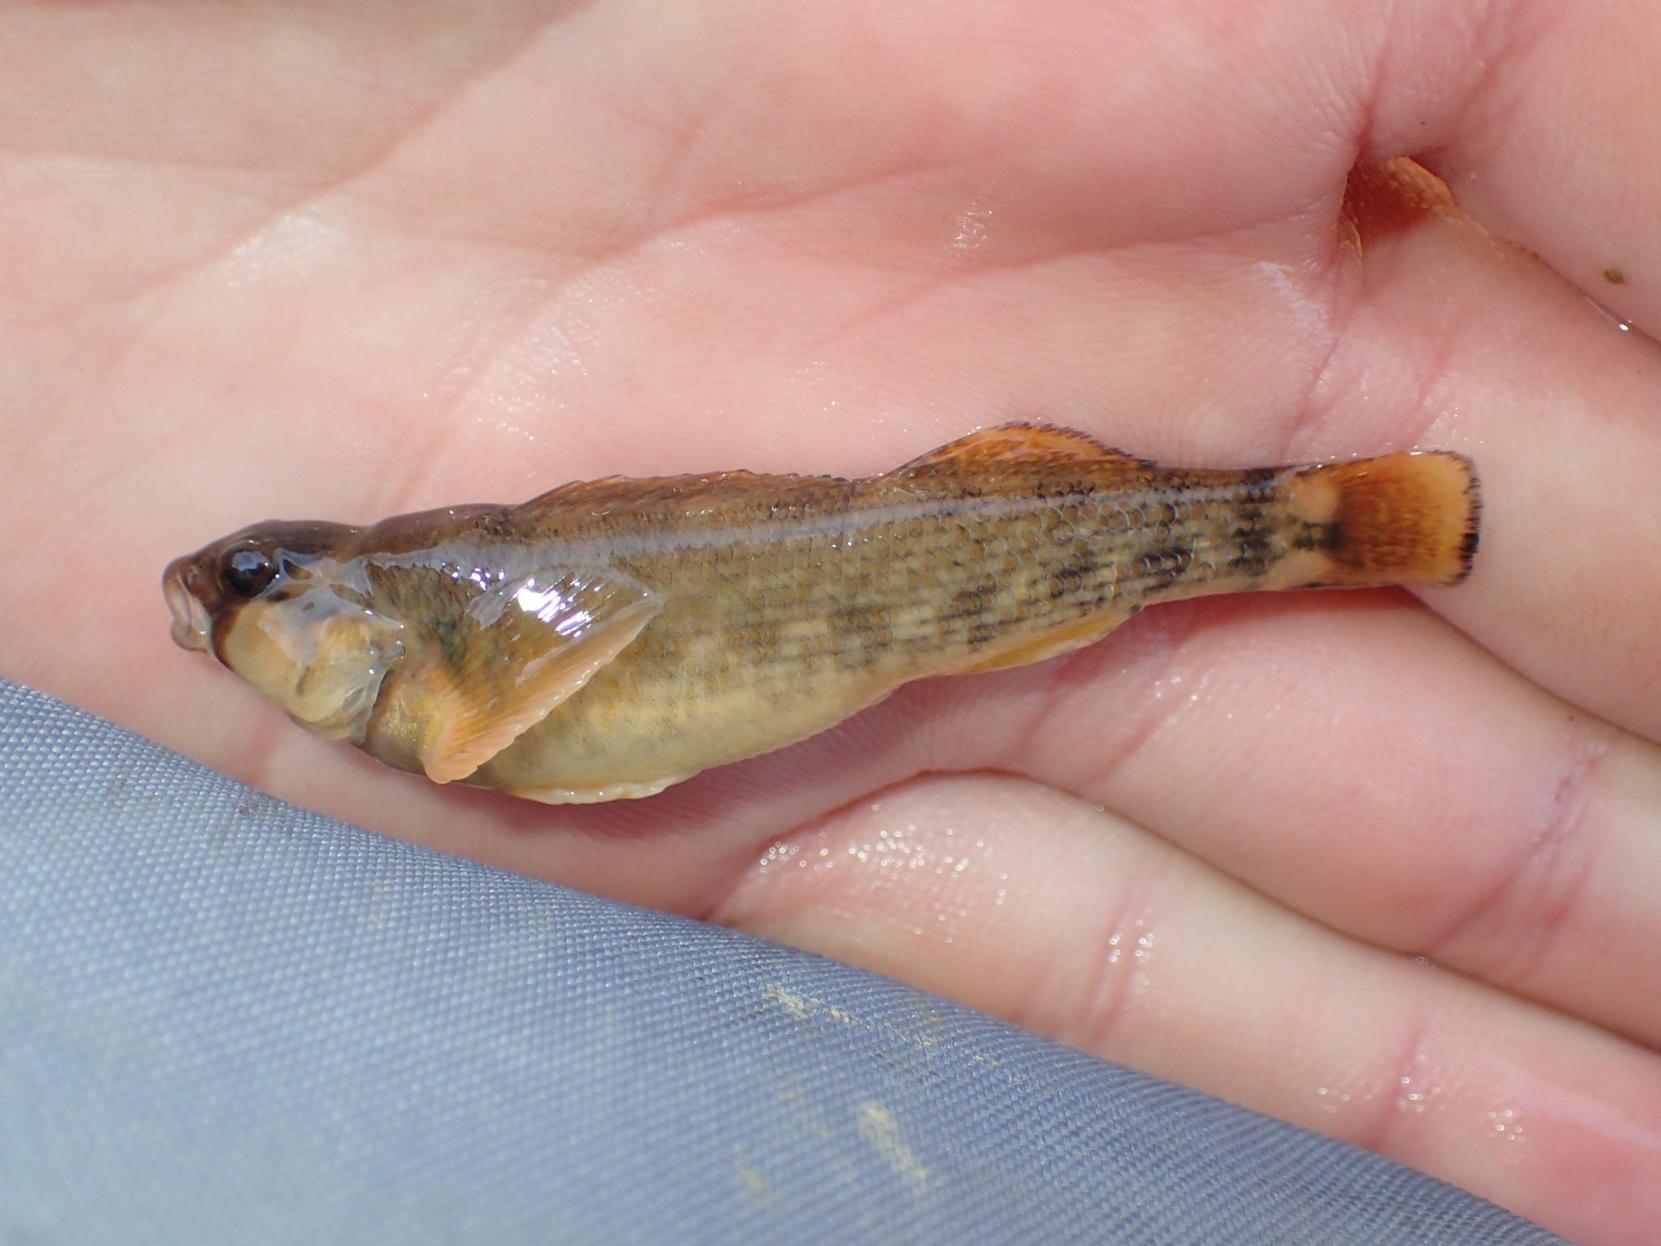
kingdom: Animalia
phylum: Chordata
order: Perciformes
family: Percidae
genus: Etheostoma
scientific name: Etheostoma bellum
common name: Orangefin darter
